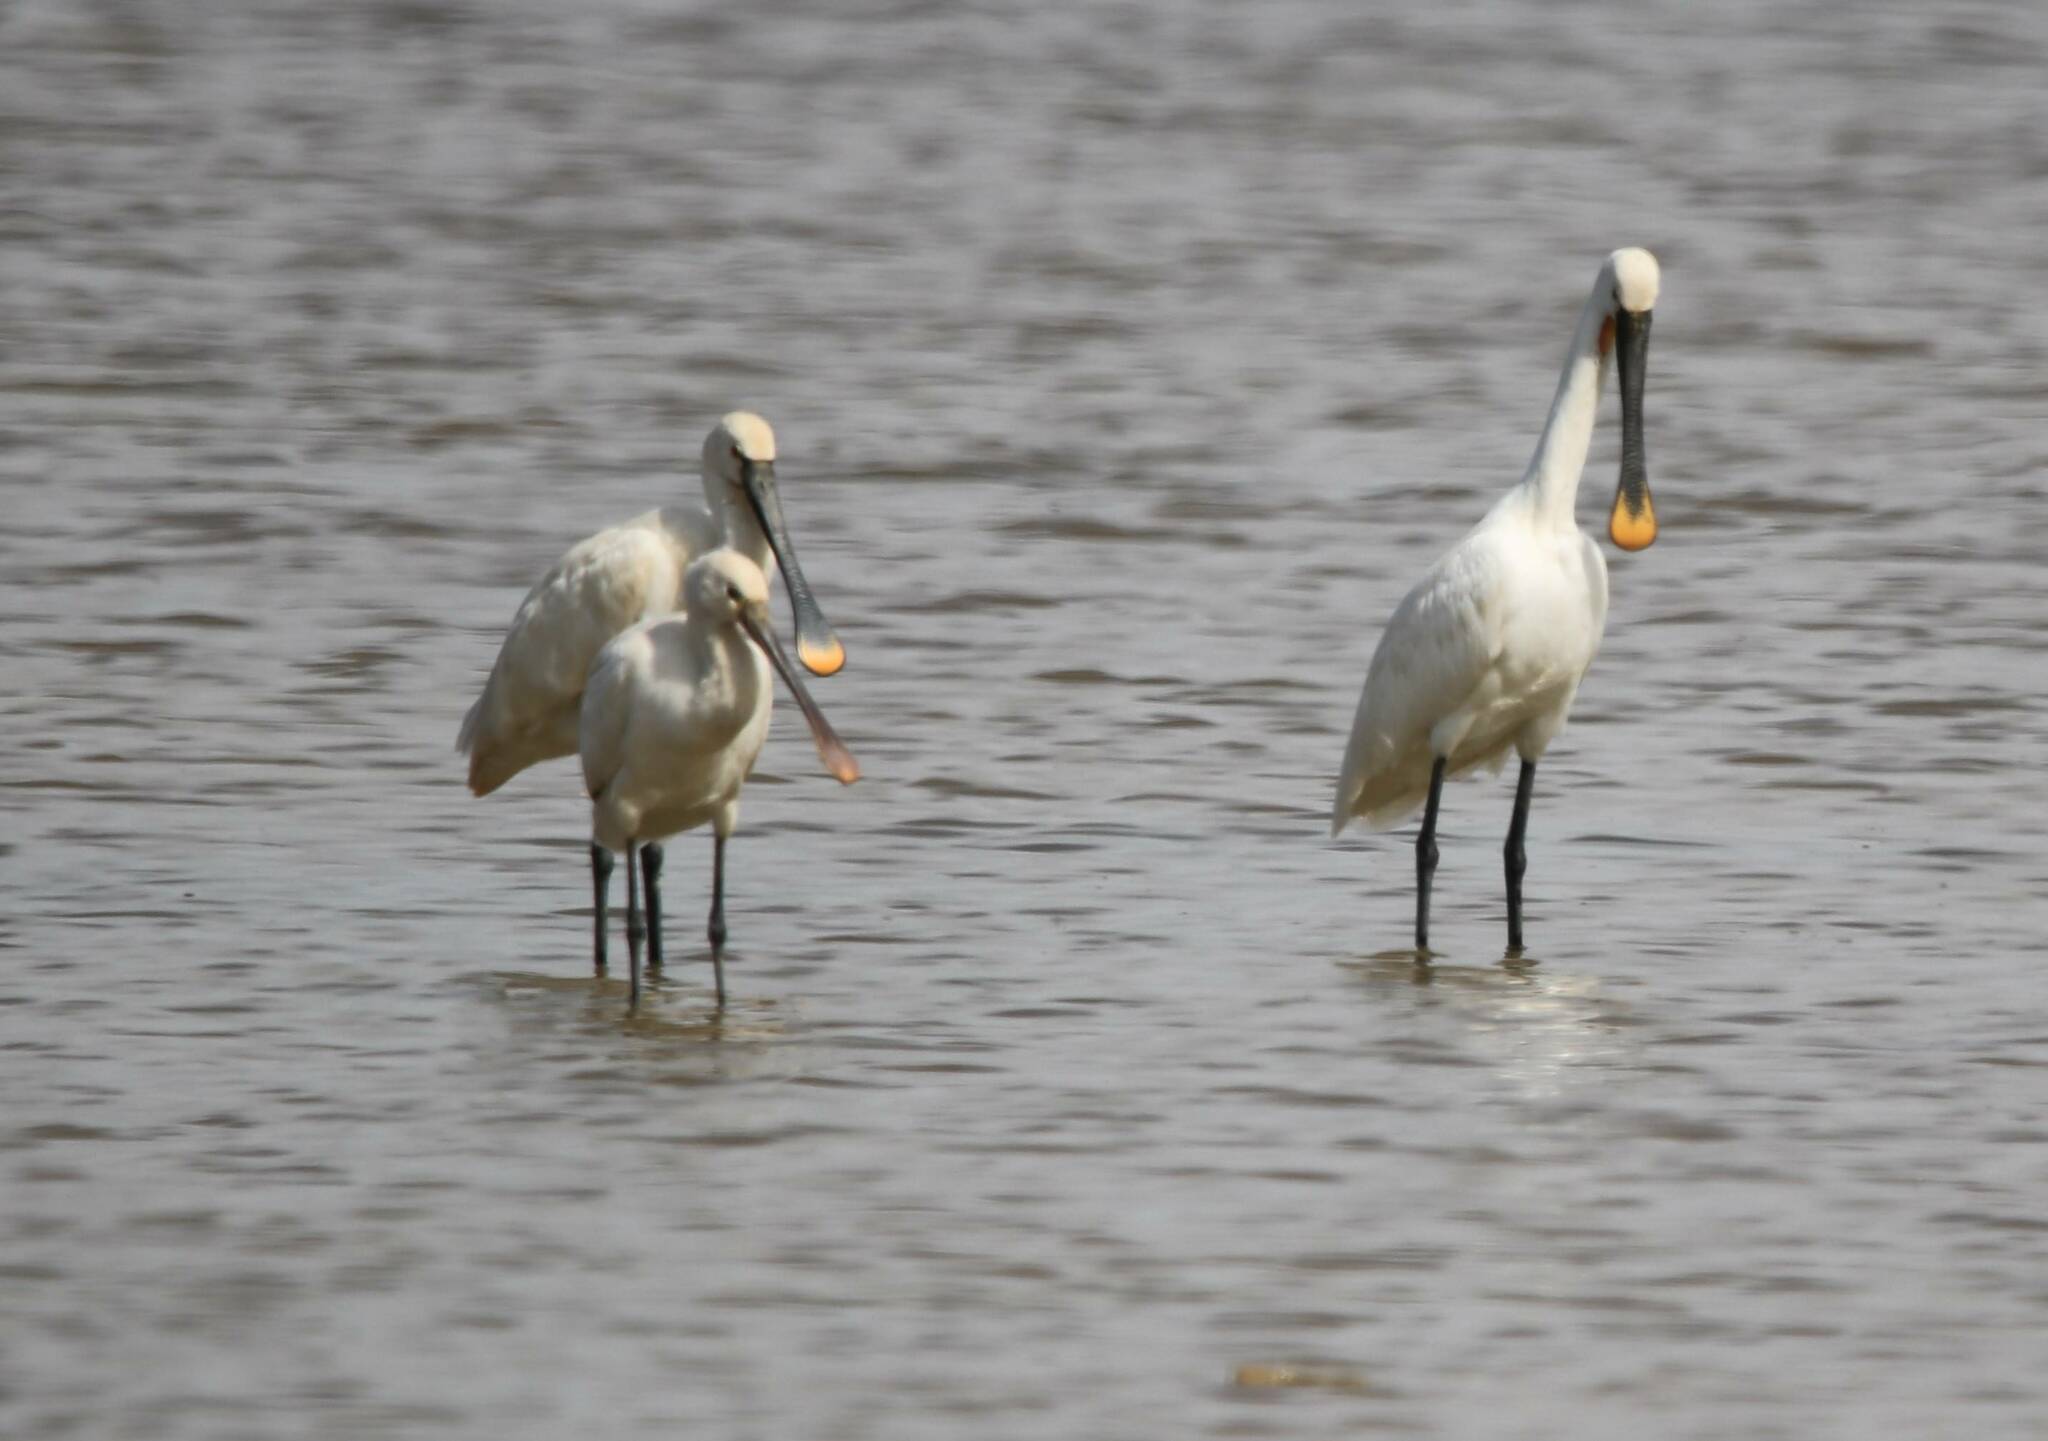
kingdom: Animalia
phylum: Chordata
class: Aves
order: Pelecaniformes
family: Threskiornithidae
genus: Platalea
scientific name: Platalea leucorodia
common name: Eurasian spoonbill
